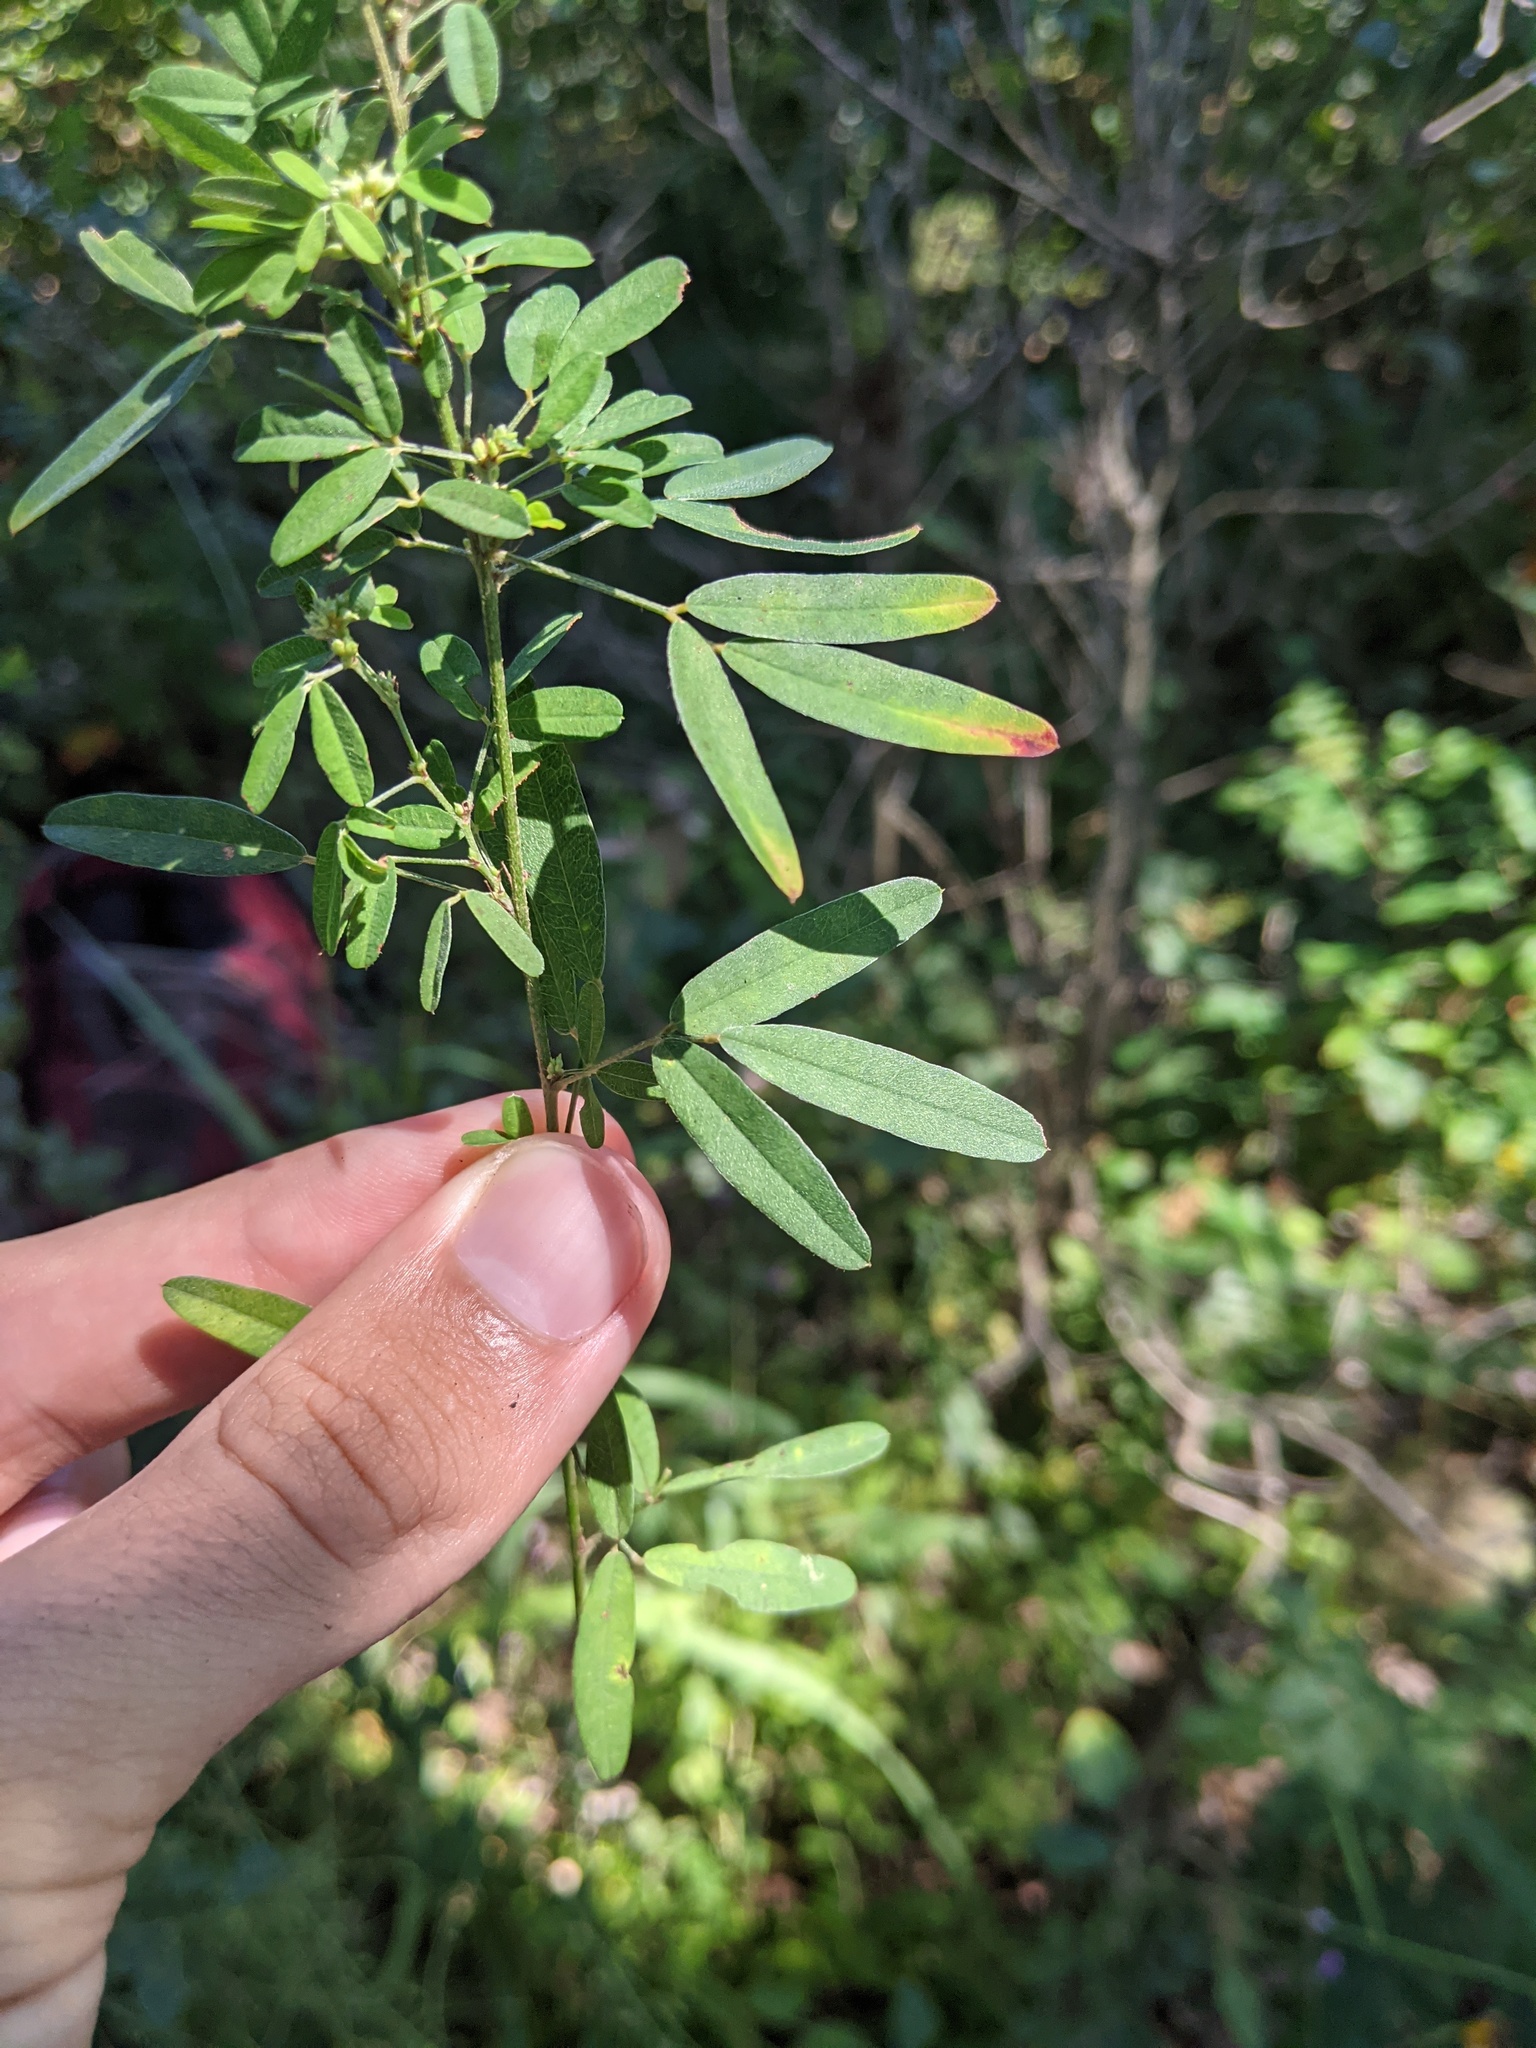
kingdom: Plantae
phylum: Tracheophyta
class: Magnoliopsida
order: Fabales
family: Fabaceae
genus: Lespedeza
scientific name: Lespedeza virginica
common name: Slender bush-clover
